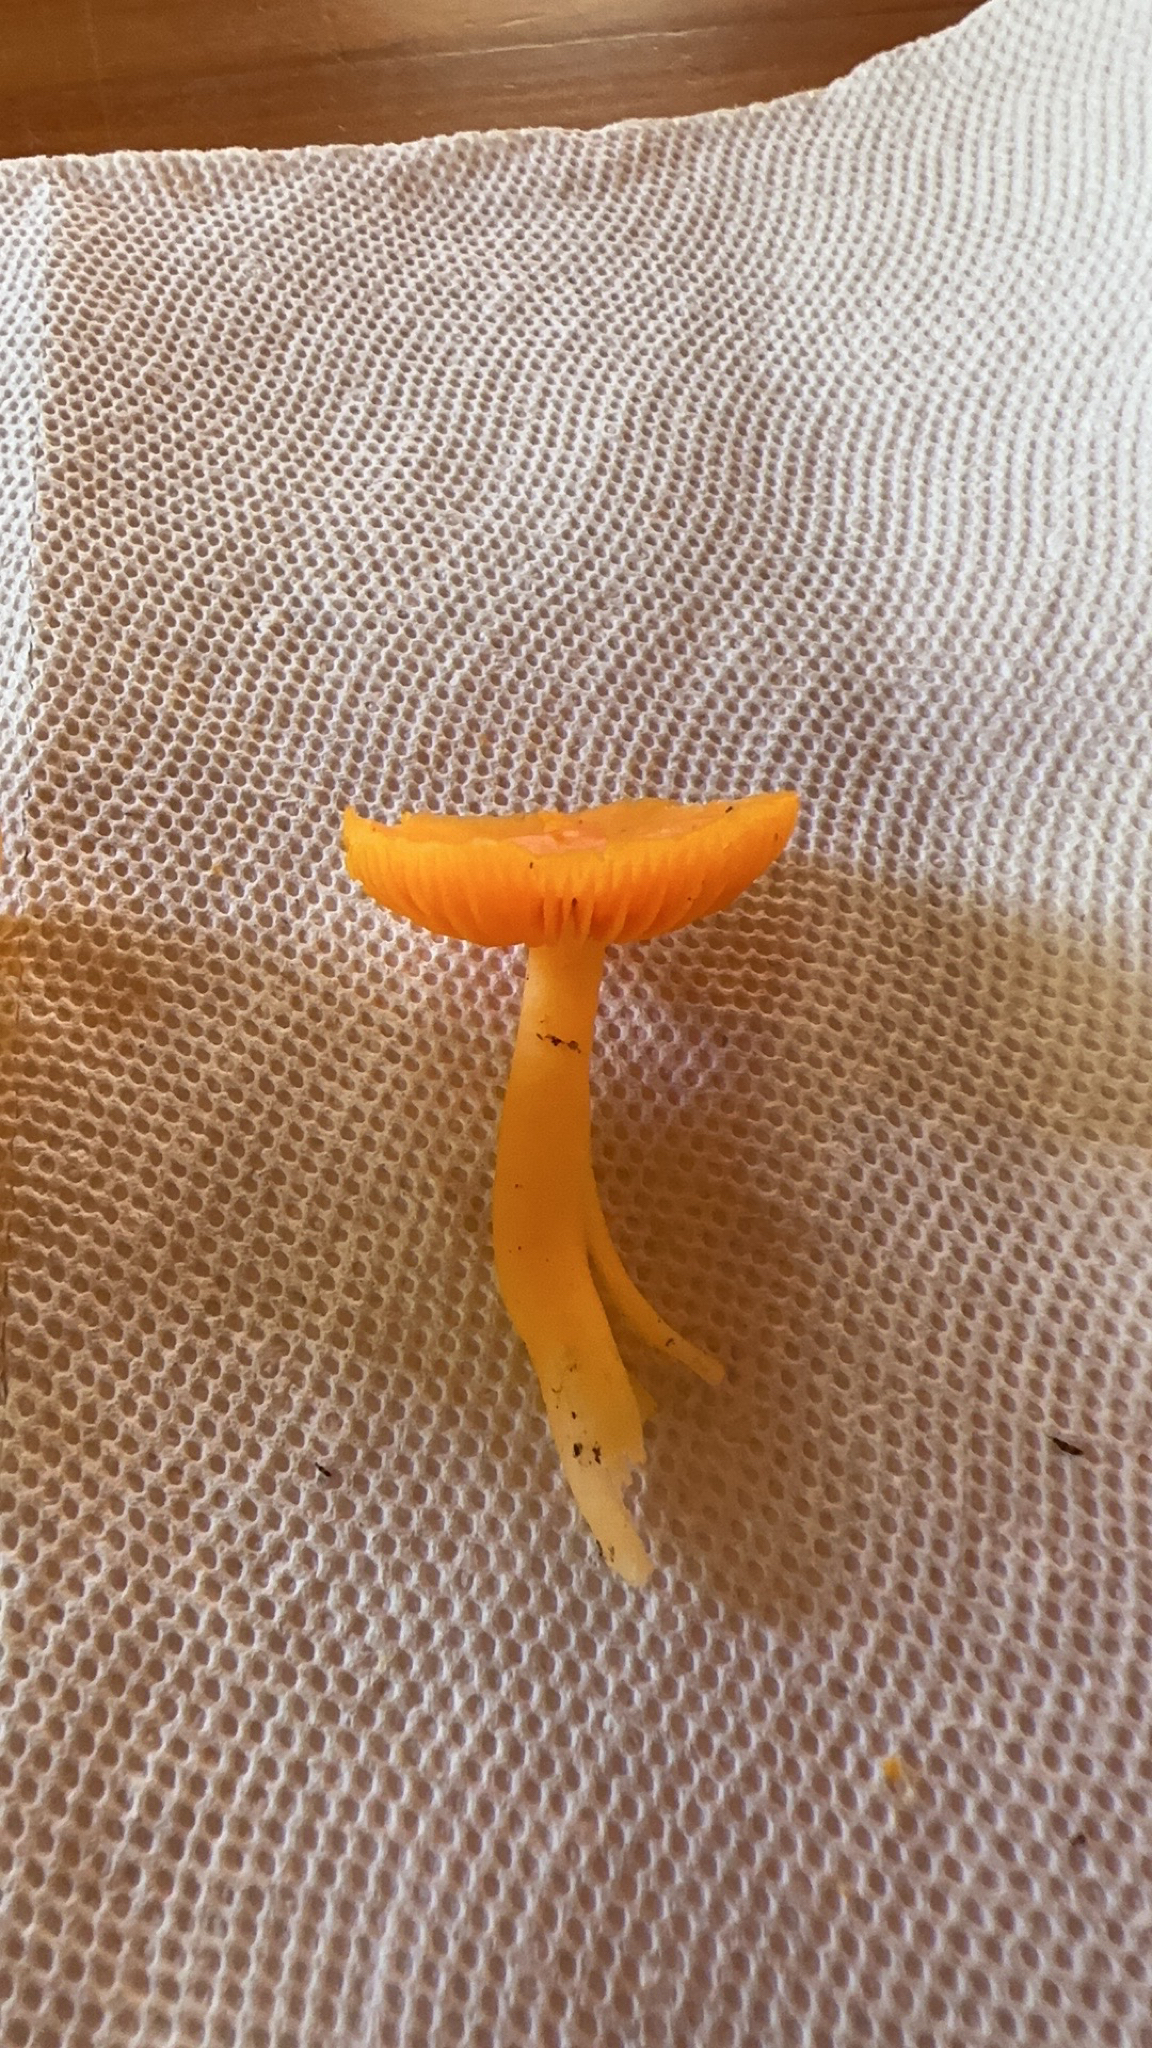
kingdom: Fungi
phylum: Basidiomycota
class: Agaricomycetes
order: Agaricales
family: Hygrophoraceae
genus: Humidicutis
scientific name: Humidicutis marginata
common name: Orange gilled waxcap
